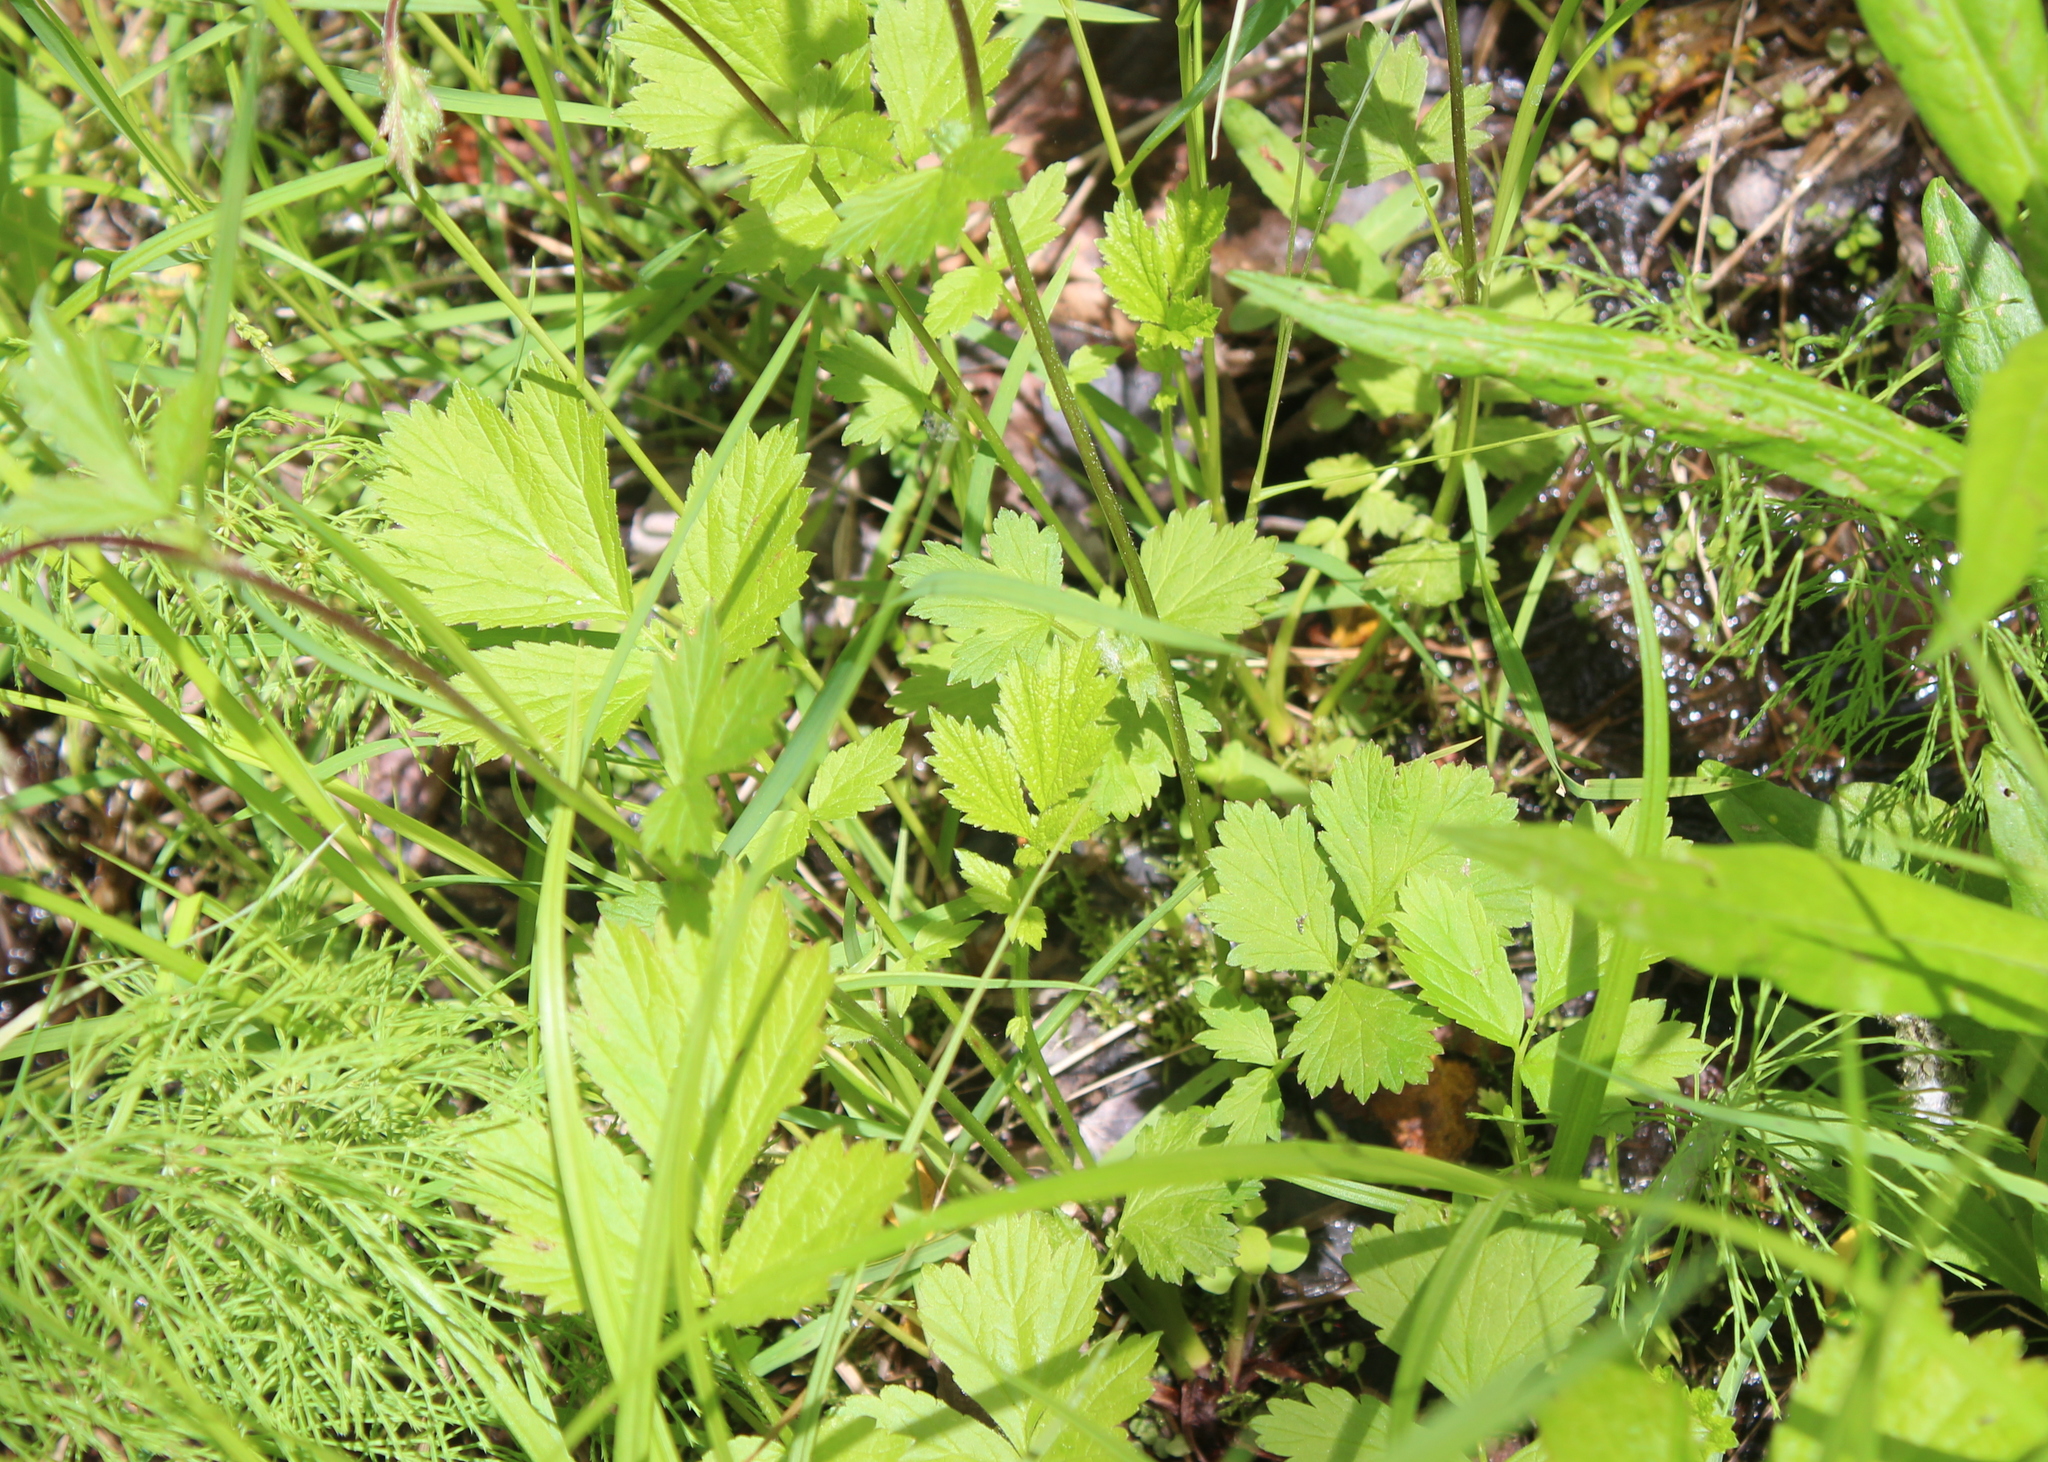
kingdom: Plantae
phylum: Tracheophyta
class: Magnoliopsida
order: Rosales
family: Rosaceae
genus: Geum
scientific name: Geum rivale
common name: Water avens
